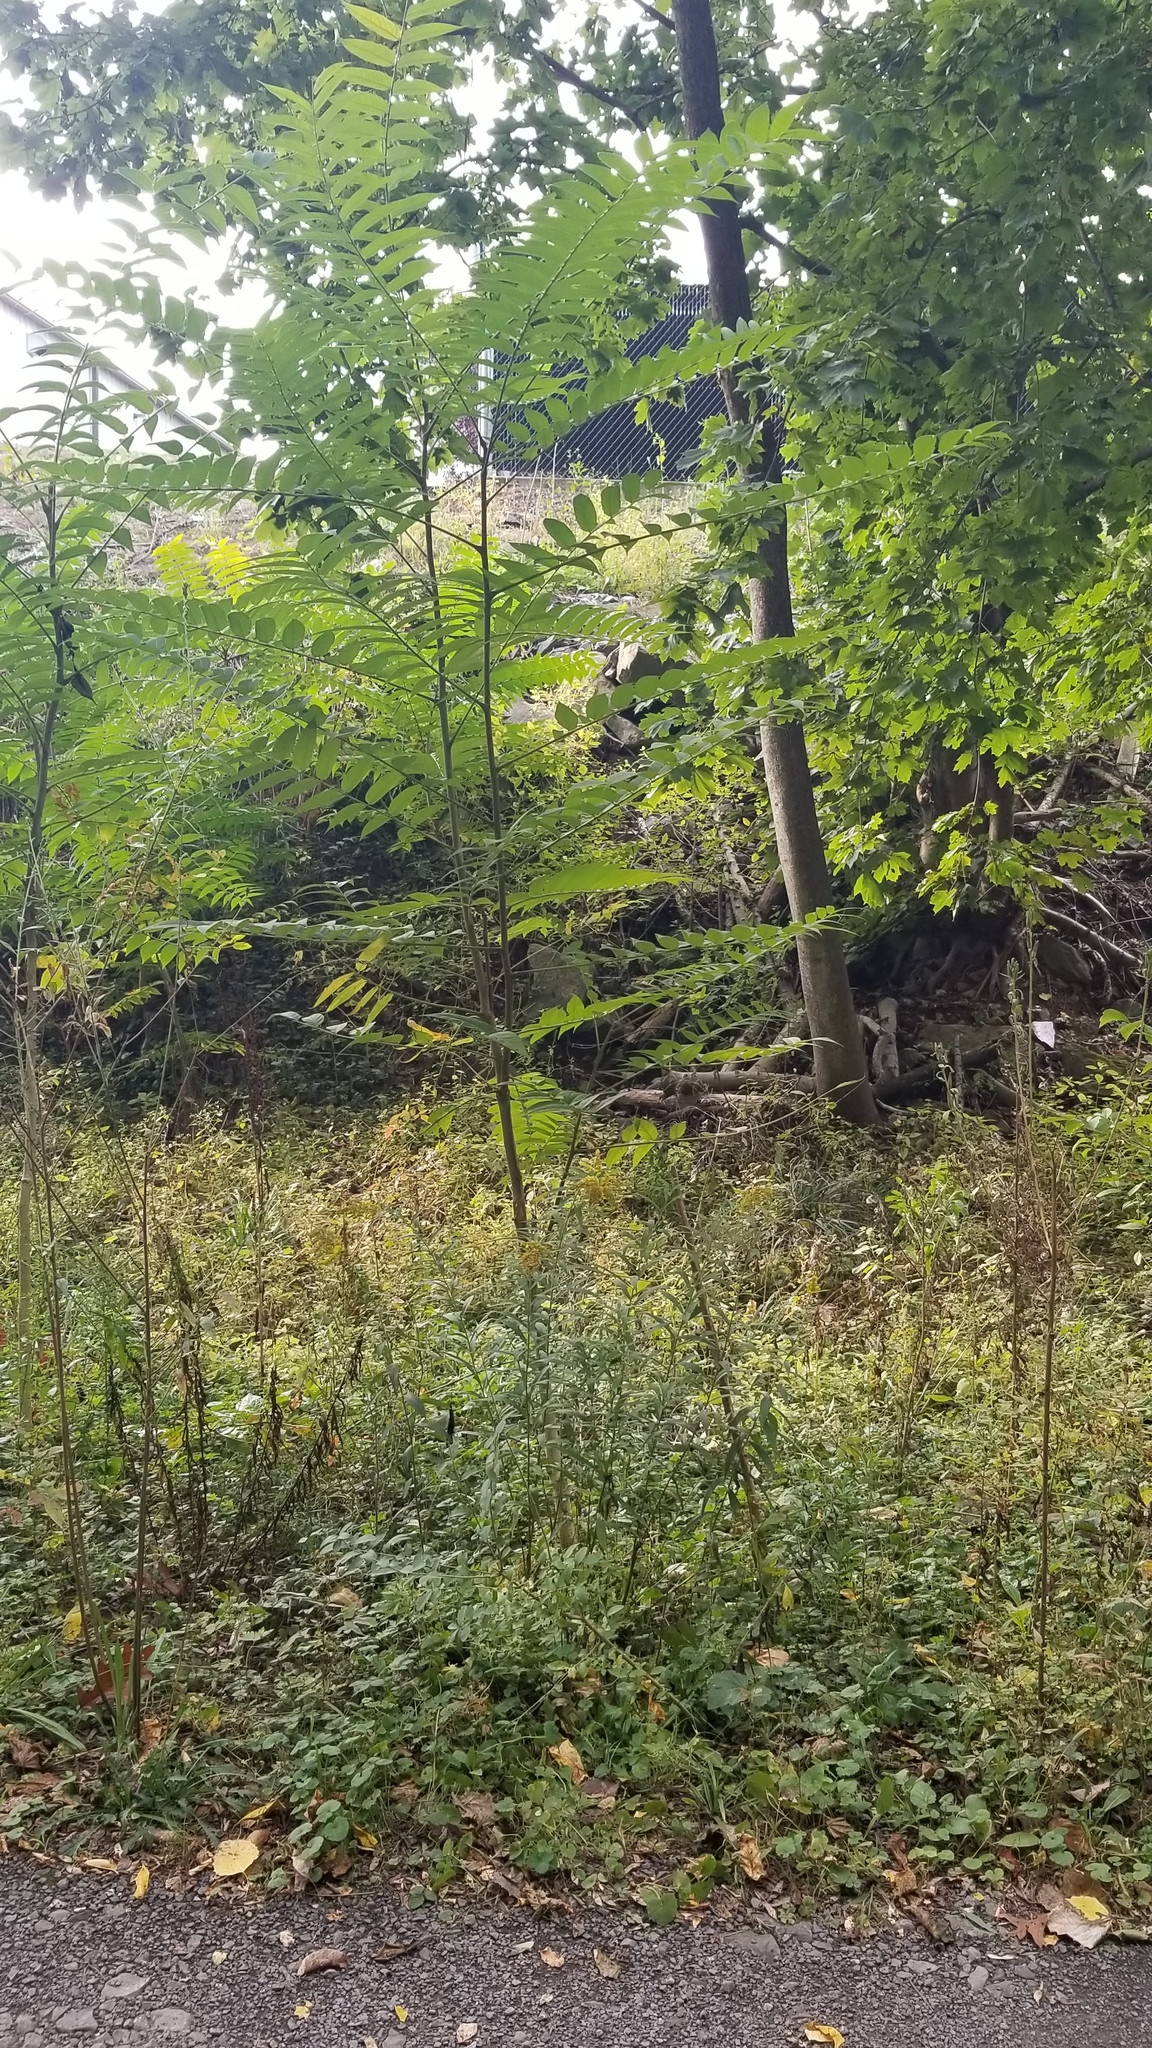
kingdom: Plantae
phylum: Tracheophyta
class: Magnoliopsida
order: Asterales
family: Asteraceae
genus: Solidago
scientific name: Solidago canadensis
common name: Canada goldenrod
